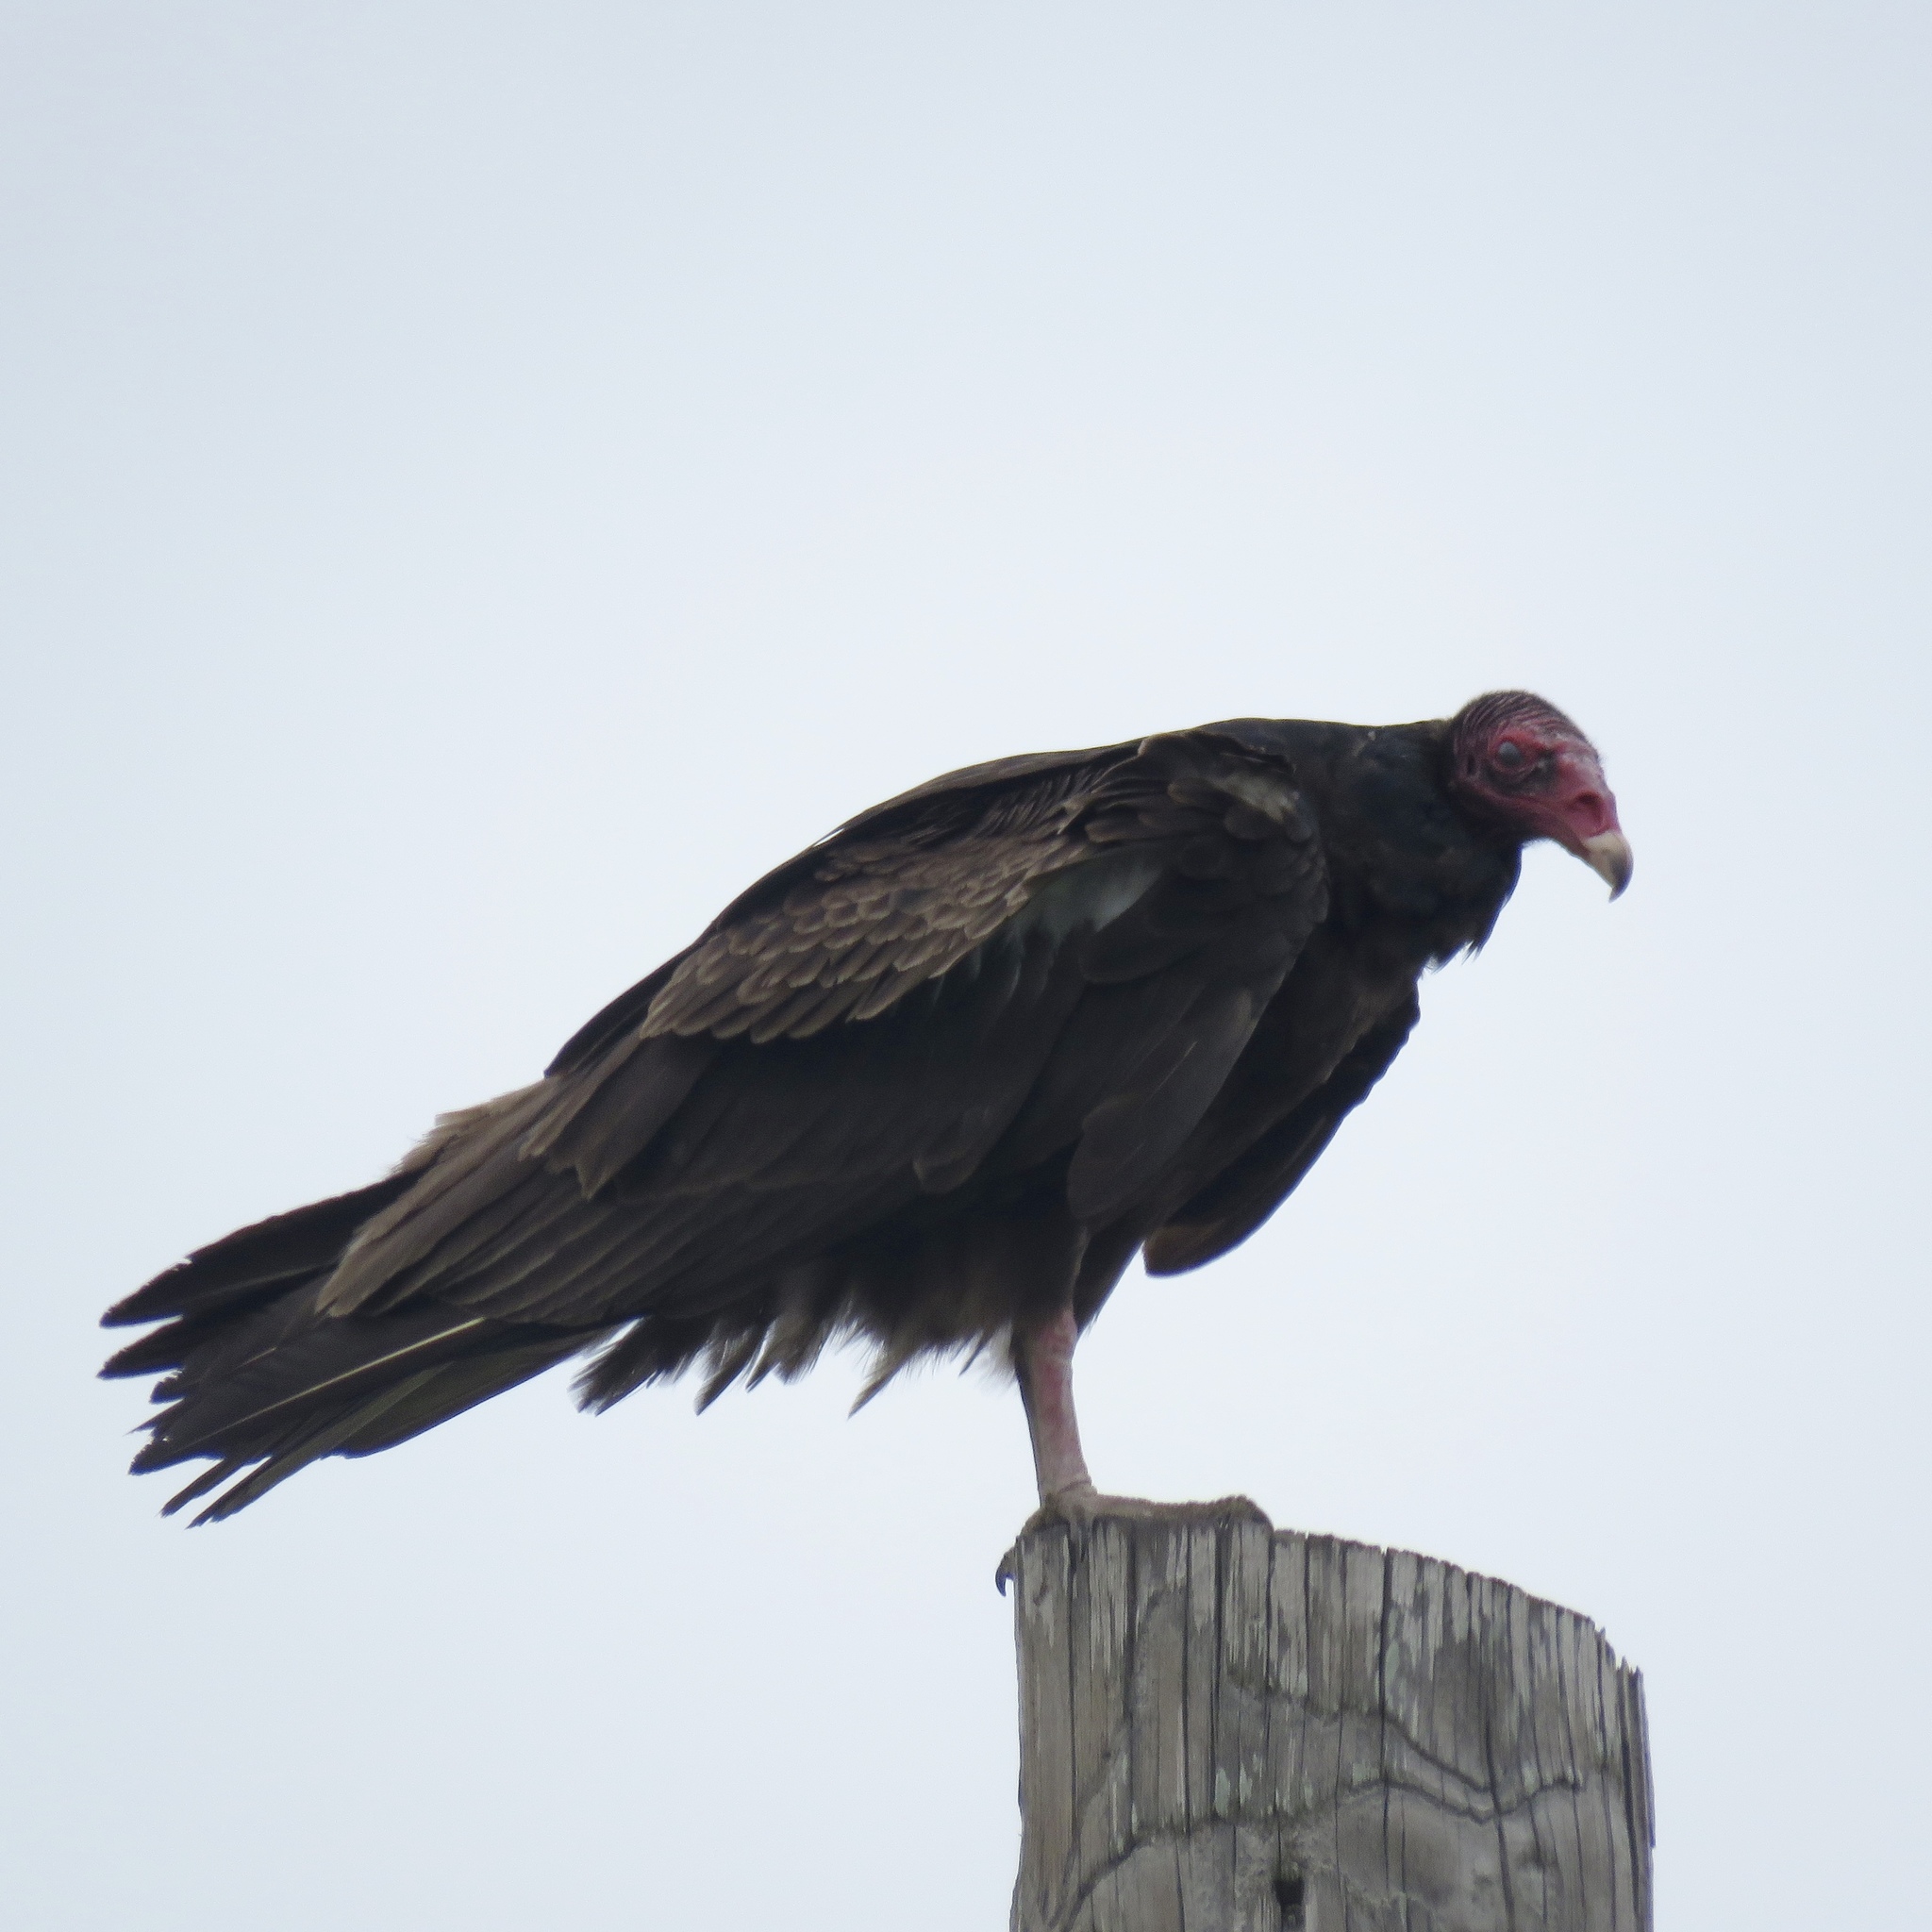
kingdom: Animalia
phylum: Chordata
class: Aves
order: Accipitriformes
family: Cathartidae
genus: Cathartes
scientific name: Cathartes aura
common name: Turkey vulture
